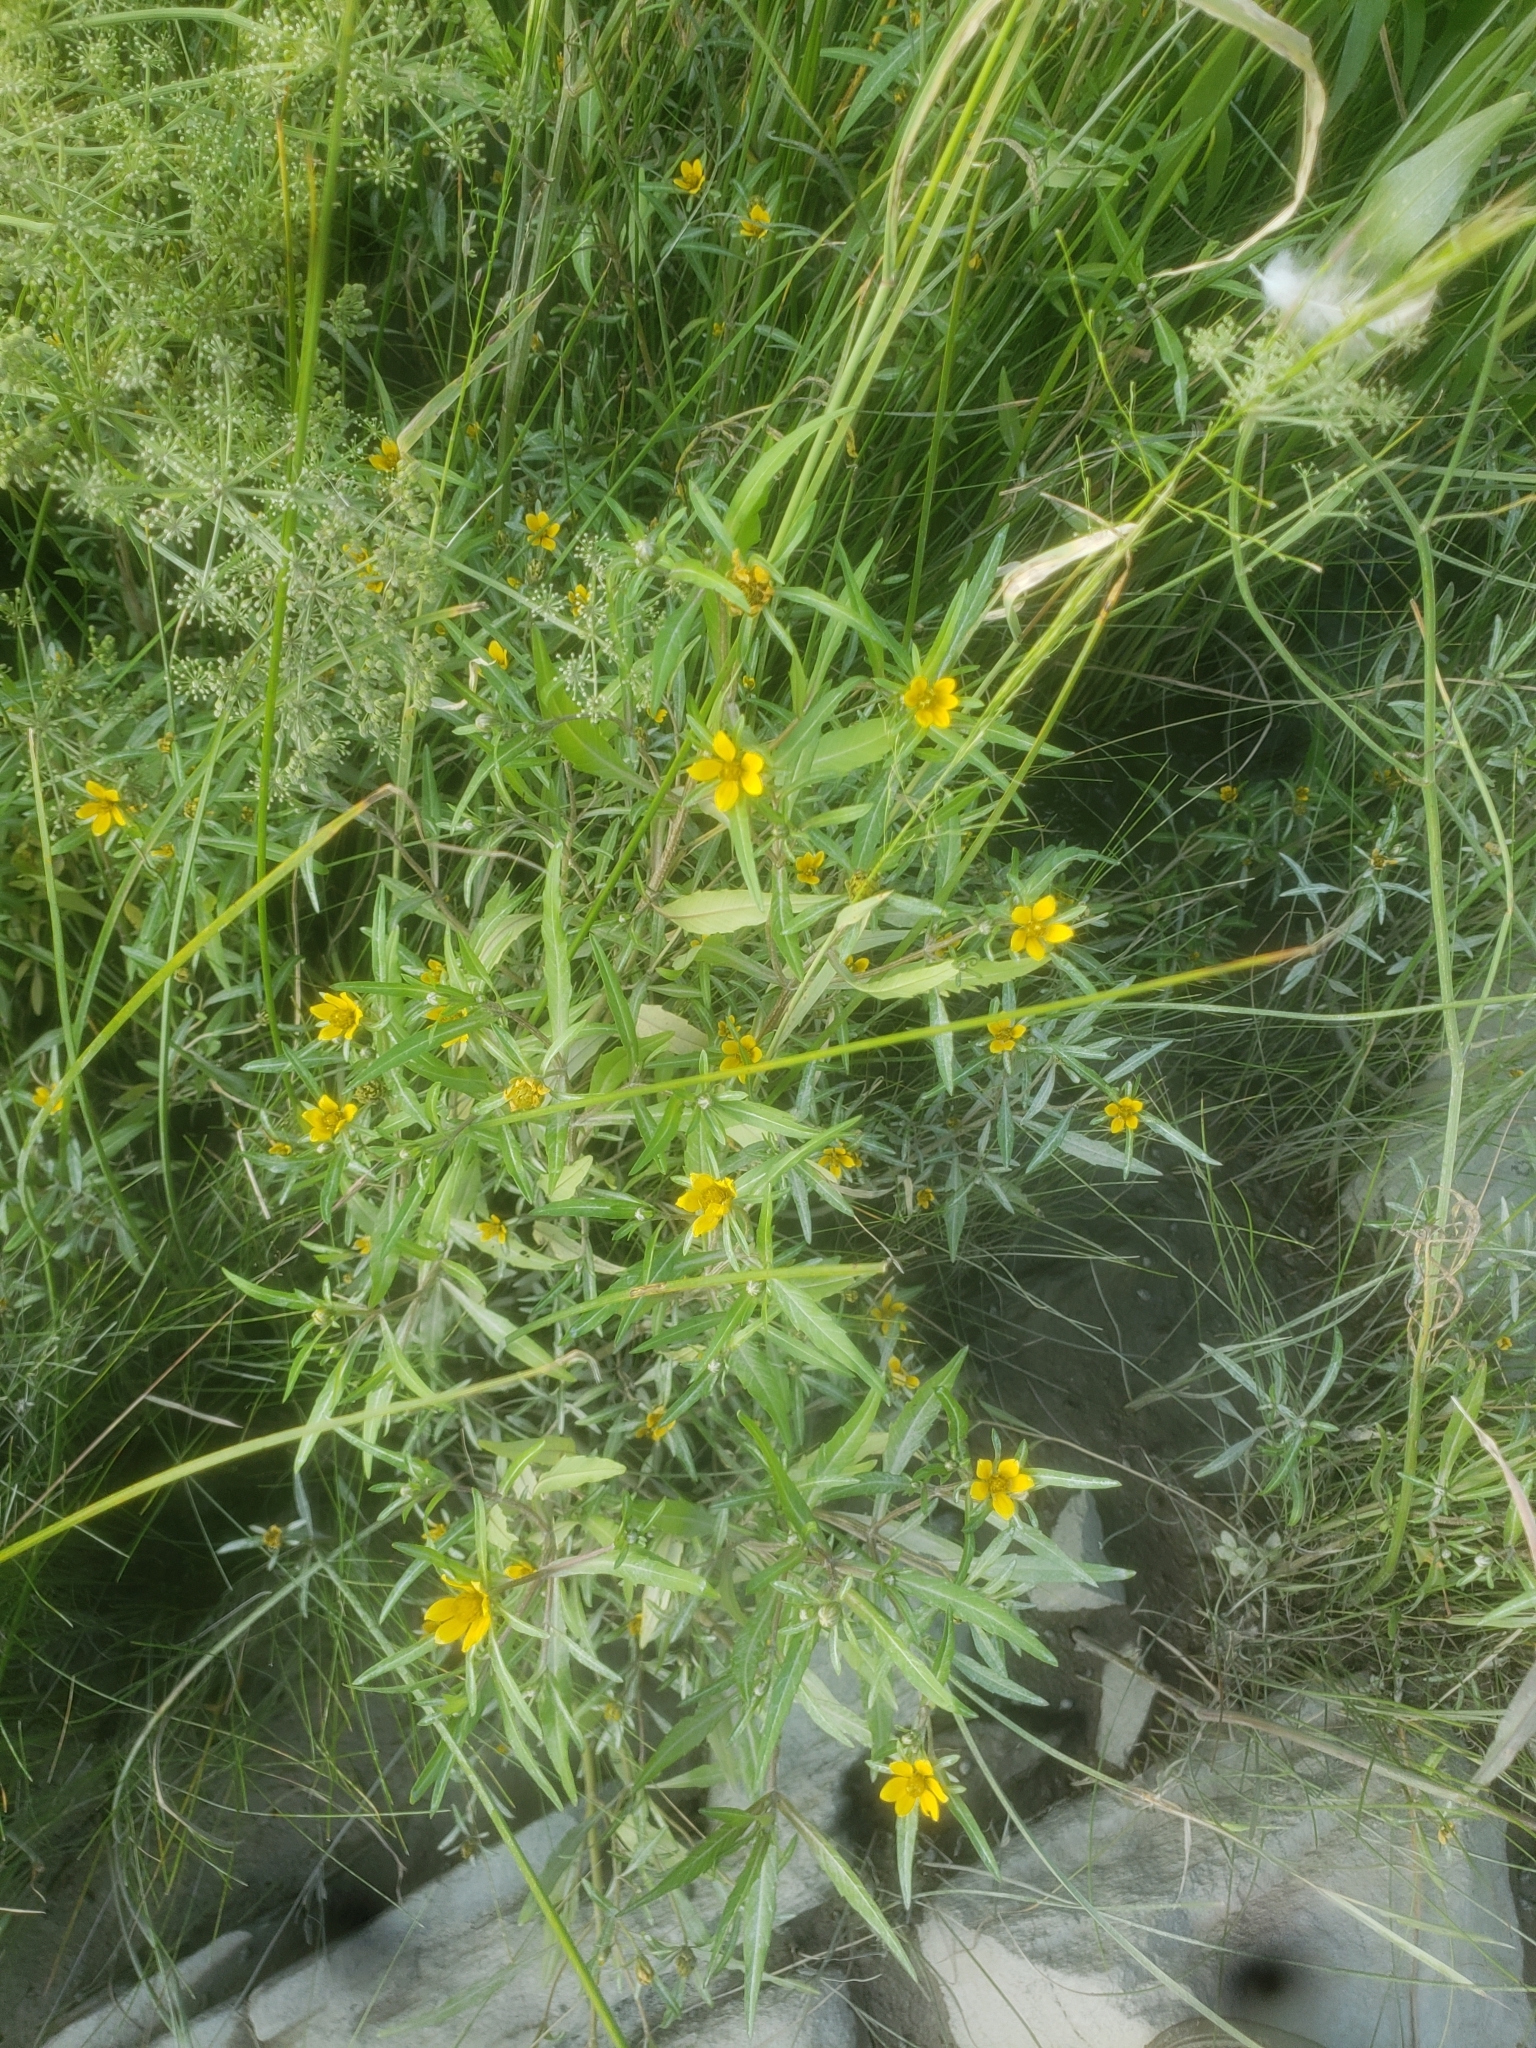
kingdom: Plantae
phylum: Tracheophyta
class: Magnoliopsida
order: Asterales
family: Asteraceae
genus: Bidens
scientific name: Bidens hyperborea
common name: Coastal beggarticks
